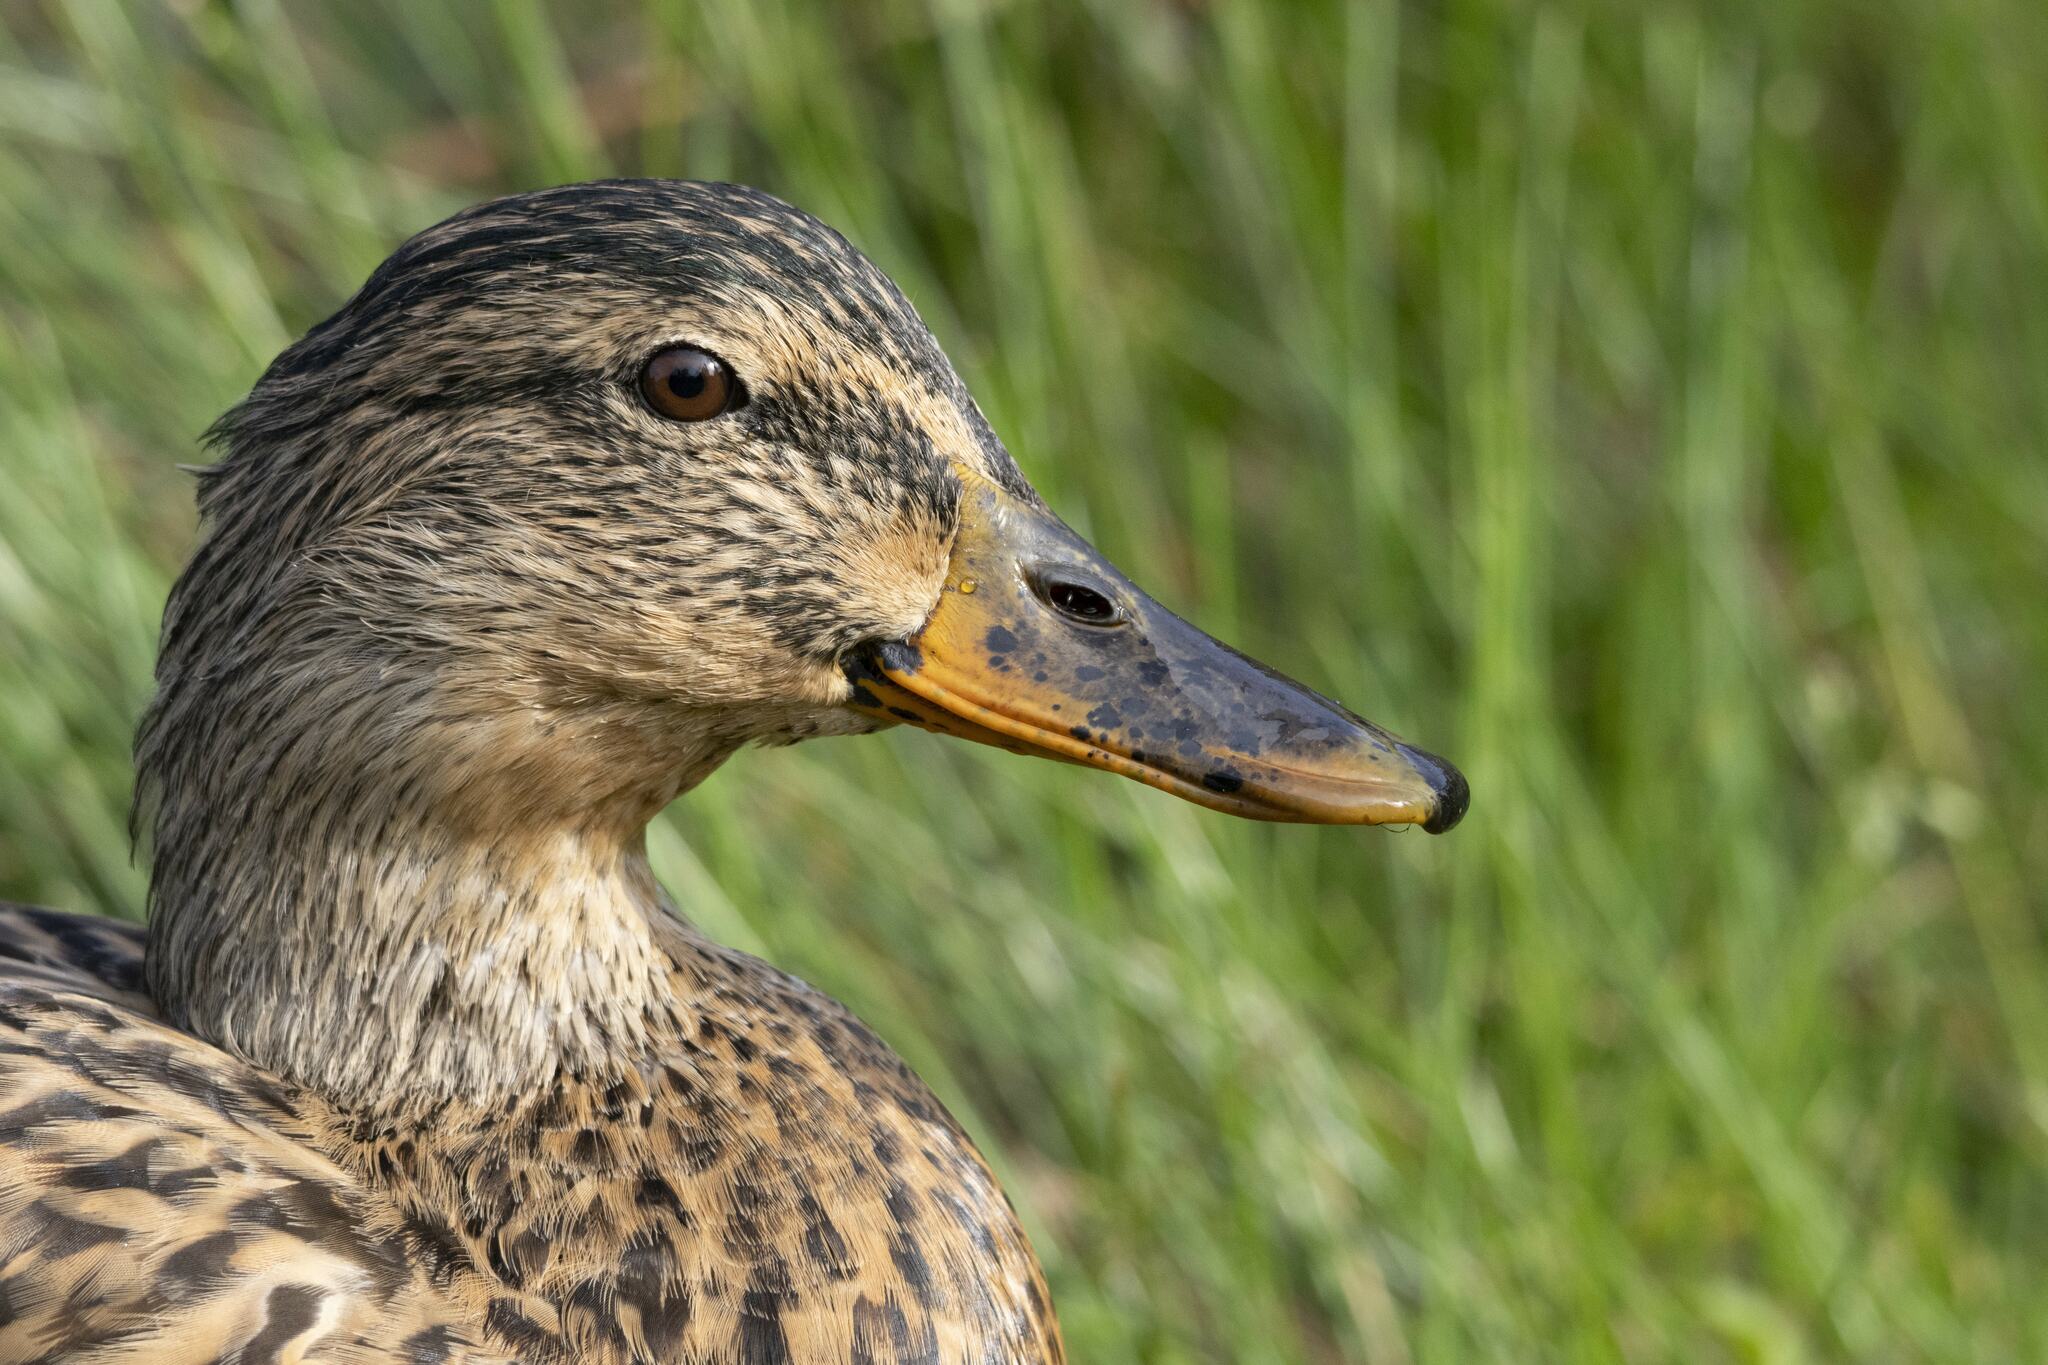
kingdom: Animalia
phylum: Chordata
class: Aves
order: Anseriformes
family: Anatidae
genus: Anas
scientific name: Anas platyrhynchos
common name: Mallard
